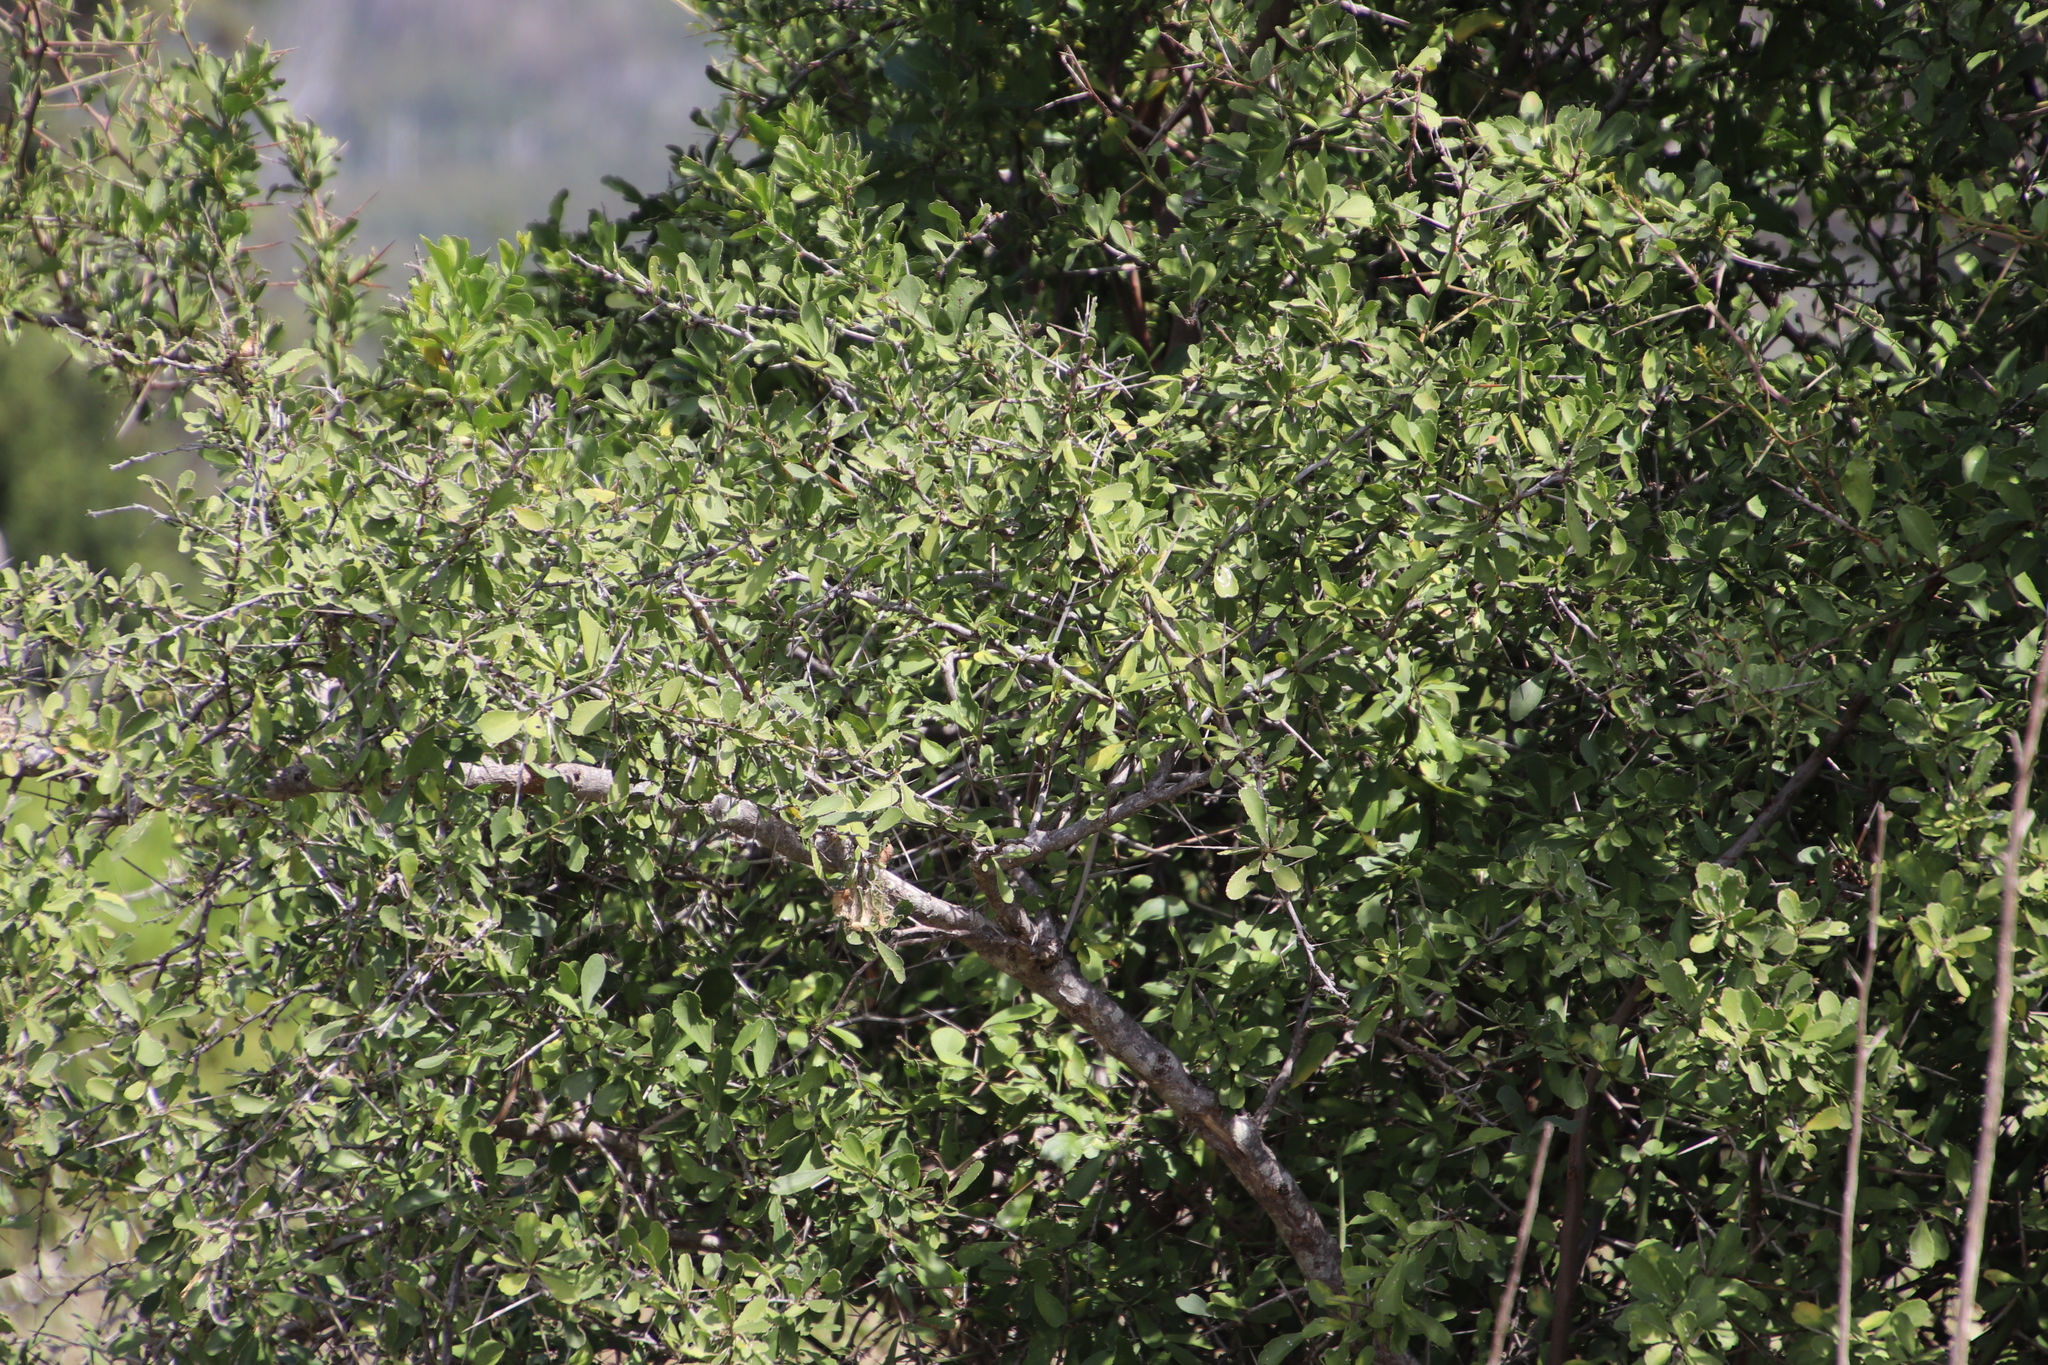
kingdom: Plantae
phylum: Tracheophyta
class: Magnoliopsida
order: Celastrales
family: Celastraceae
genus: Gymnosporia
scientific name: Gymnosporia buxifolia
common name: Common spike-thorn
